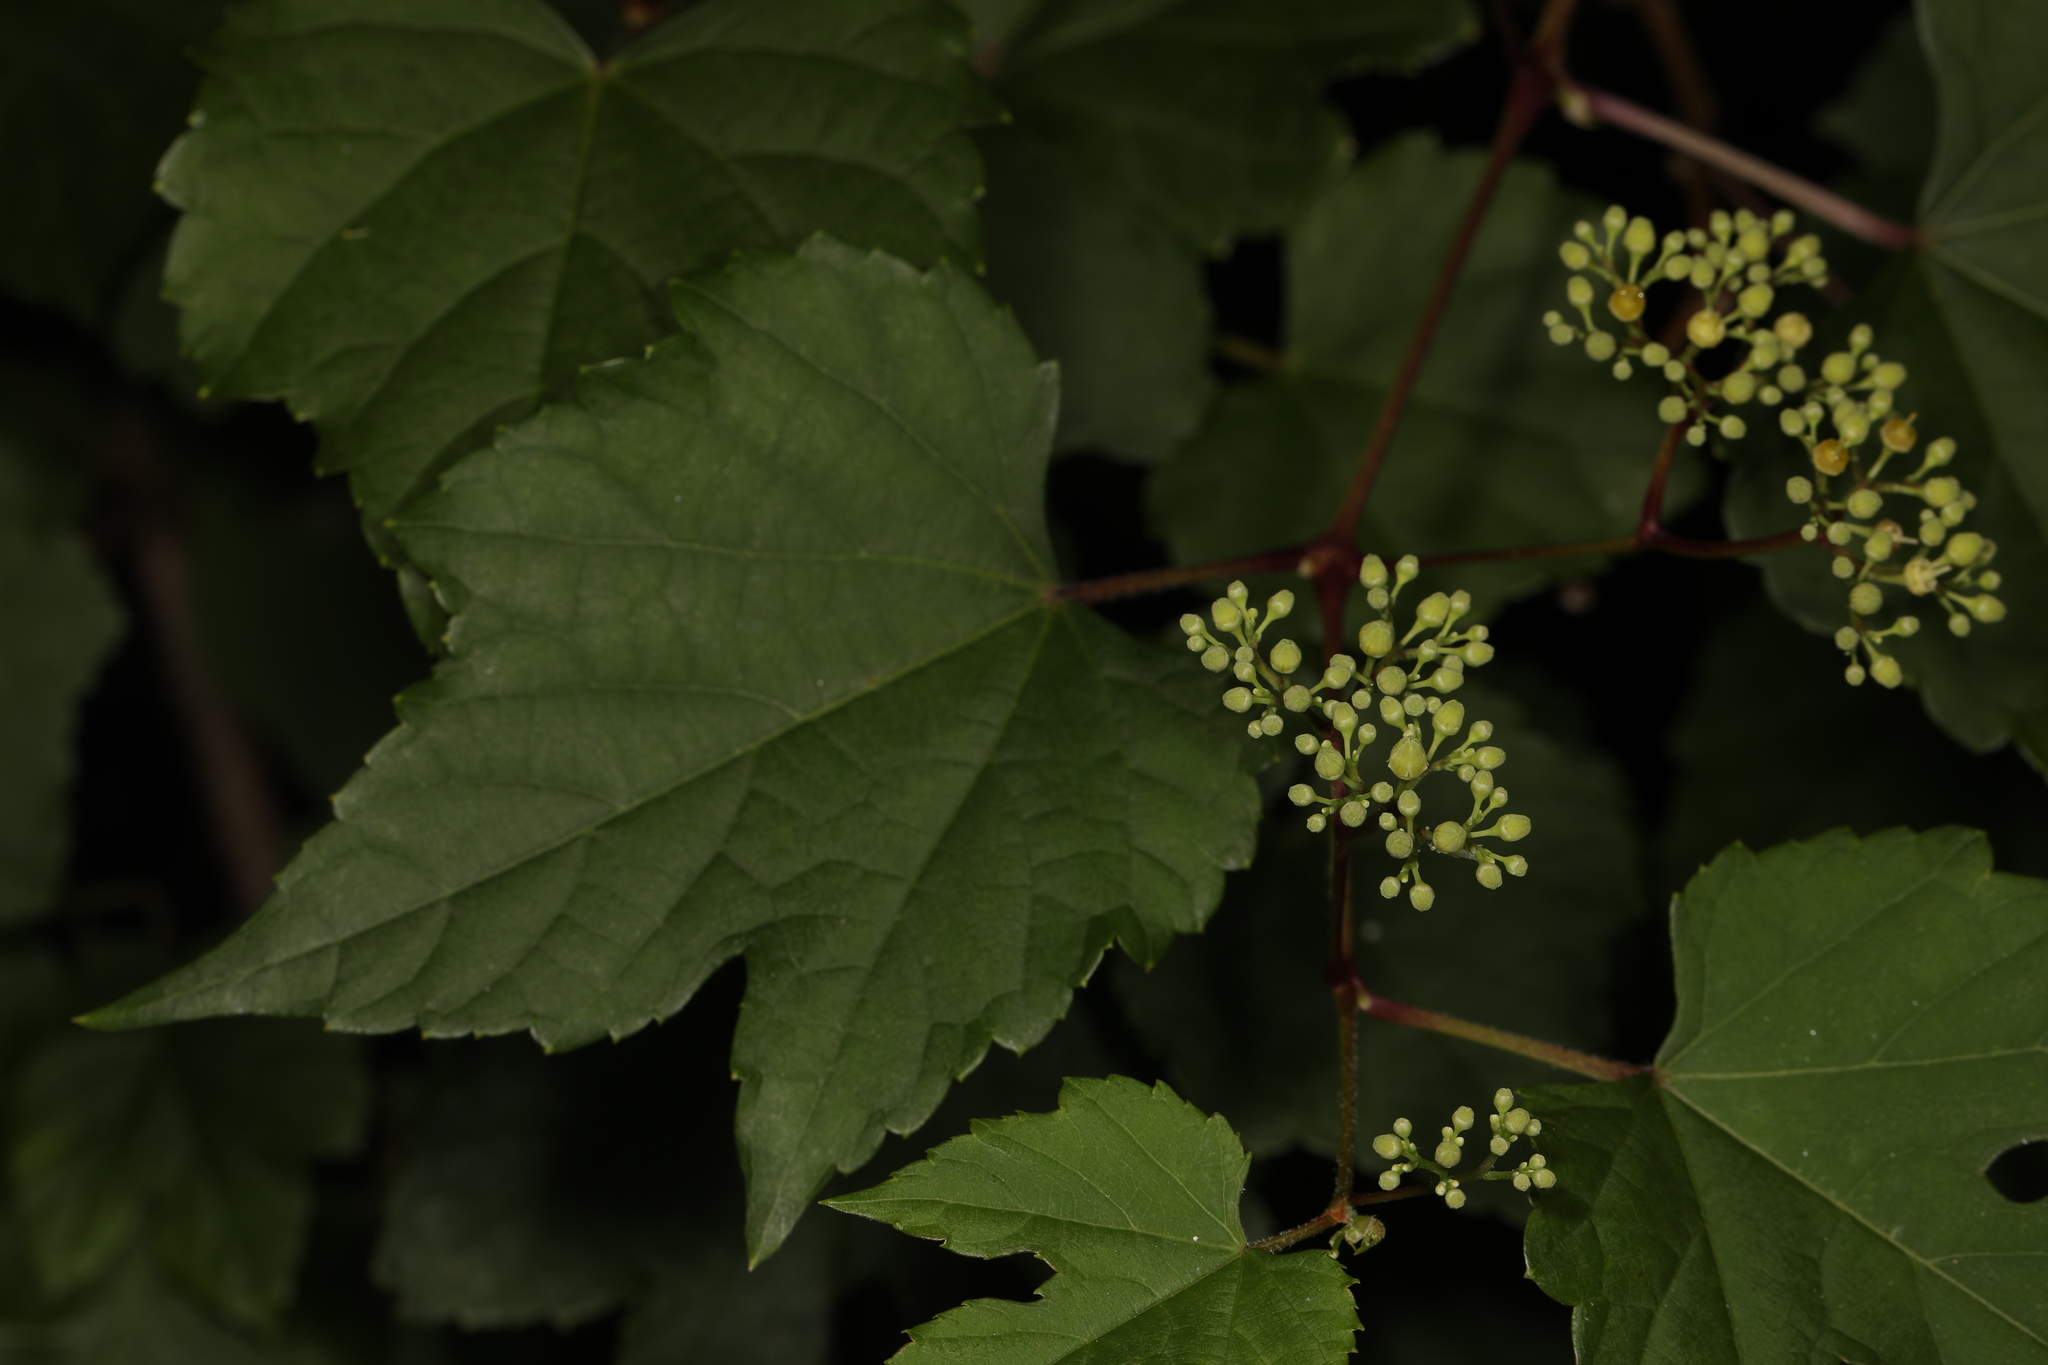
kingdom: Plantae
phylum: Tracheophyta
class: Magnoliopsida
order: Vitales
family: Vitaceae
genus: Ampelopsis
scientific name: Ampelopsis glandulosa
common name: Amur peppervine
